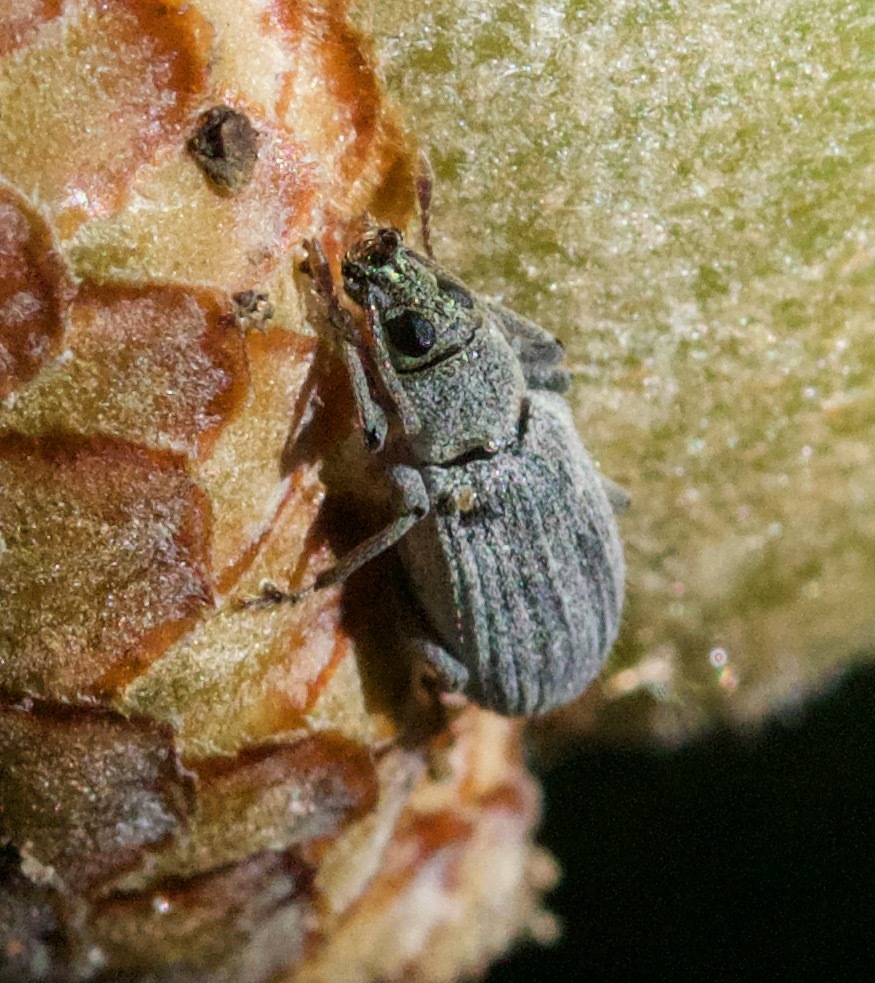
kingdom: Animalia
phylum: Arthropoda
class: Insecta
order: Coleoptera
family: Curculionidae
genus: Cyrtepistomus
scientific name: Cyrtepistomus castaneus
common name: Weevil
